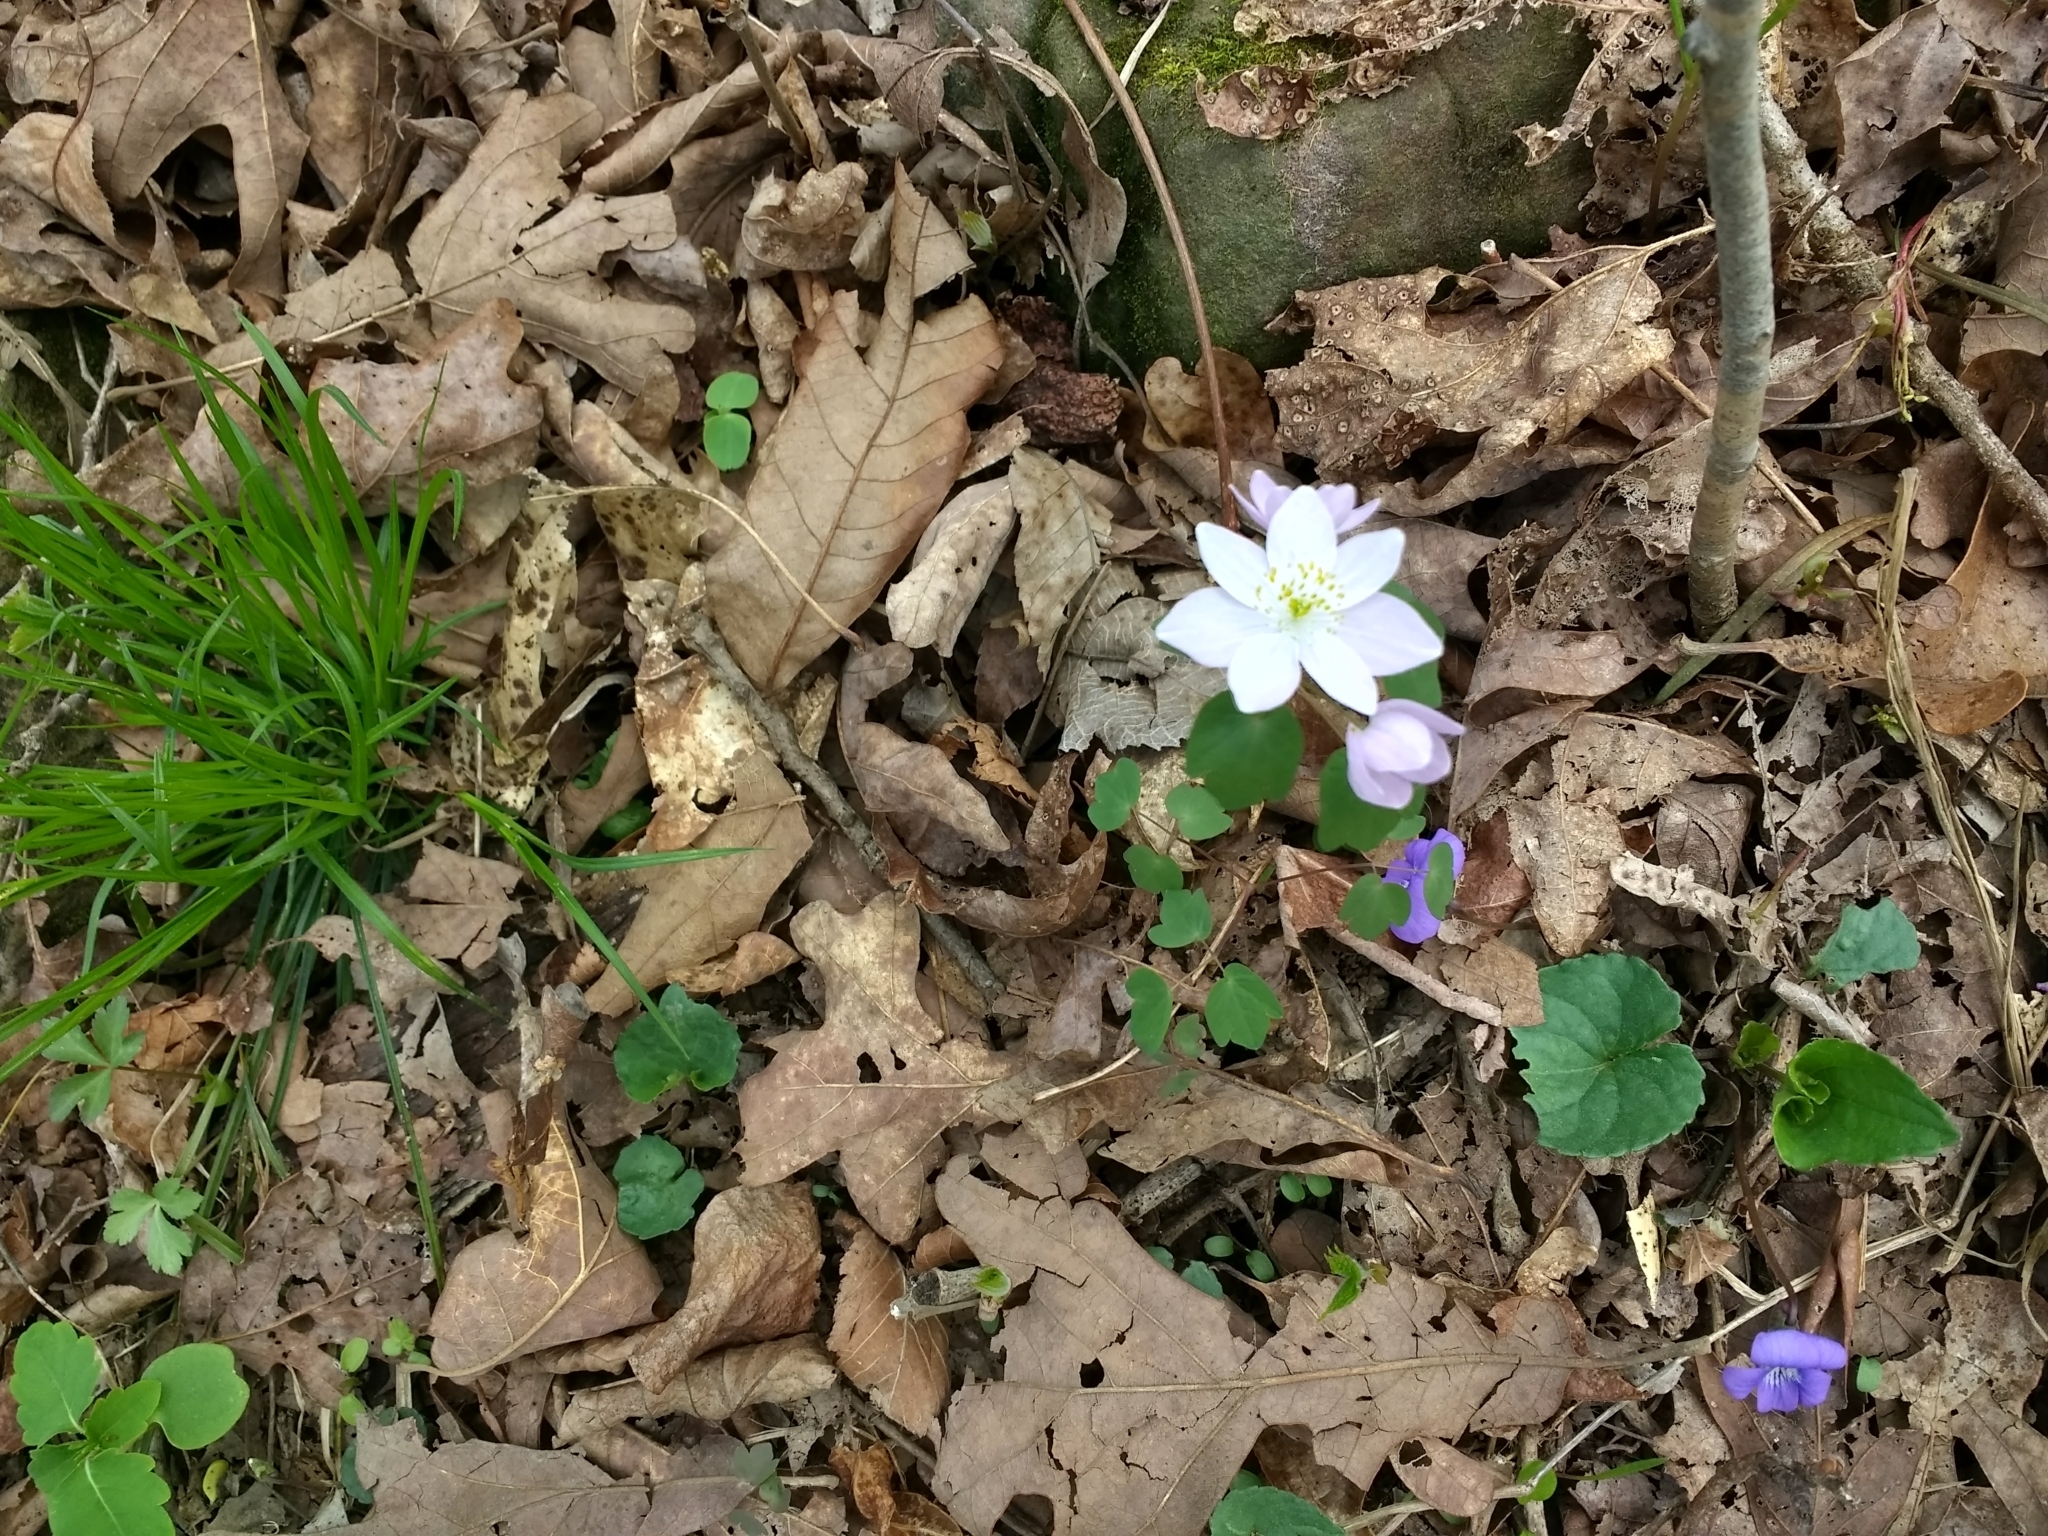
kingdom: Plantae
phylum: Tracheophyta
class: Magnoliopsida
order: Ranunculales
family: Ranunculaceae
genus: Thalictrum
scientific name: Thalictrum thalictroides
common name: Rue-anemone
